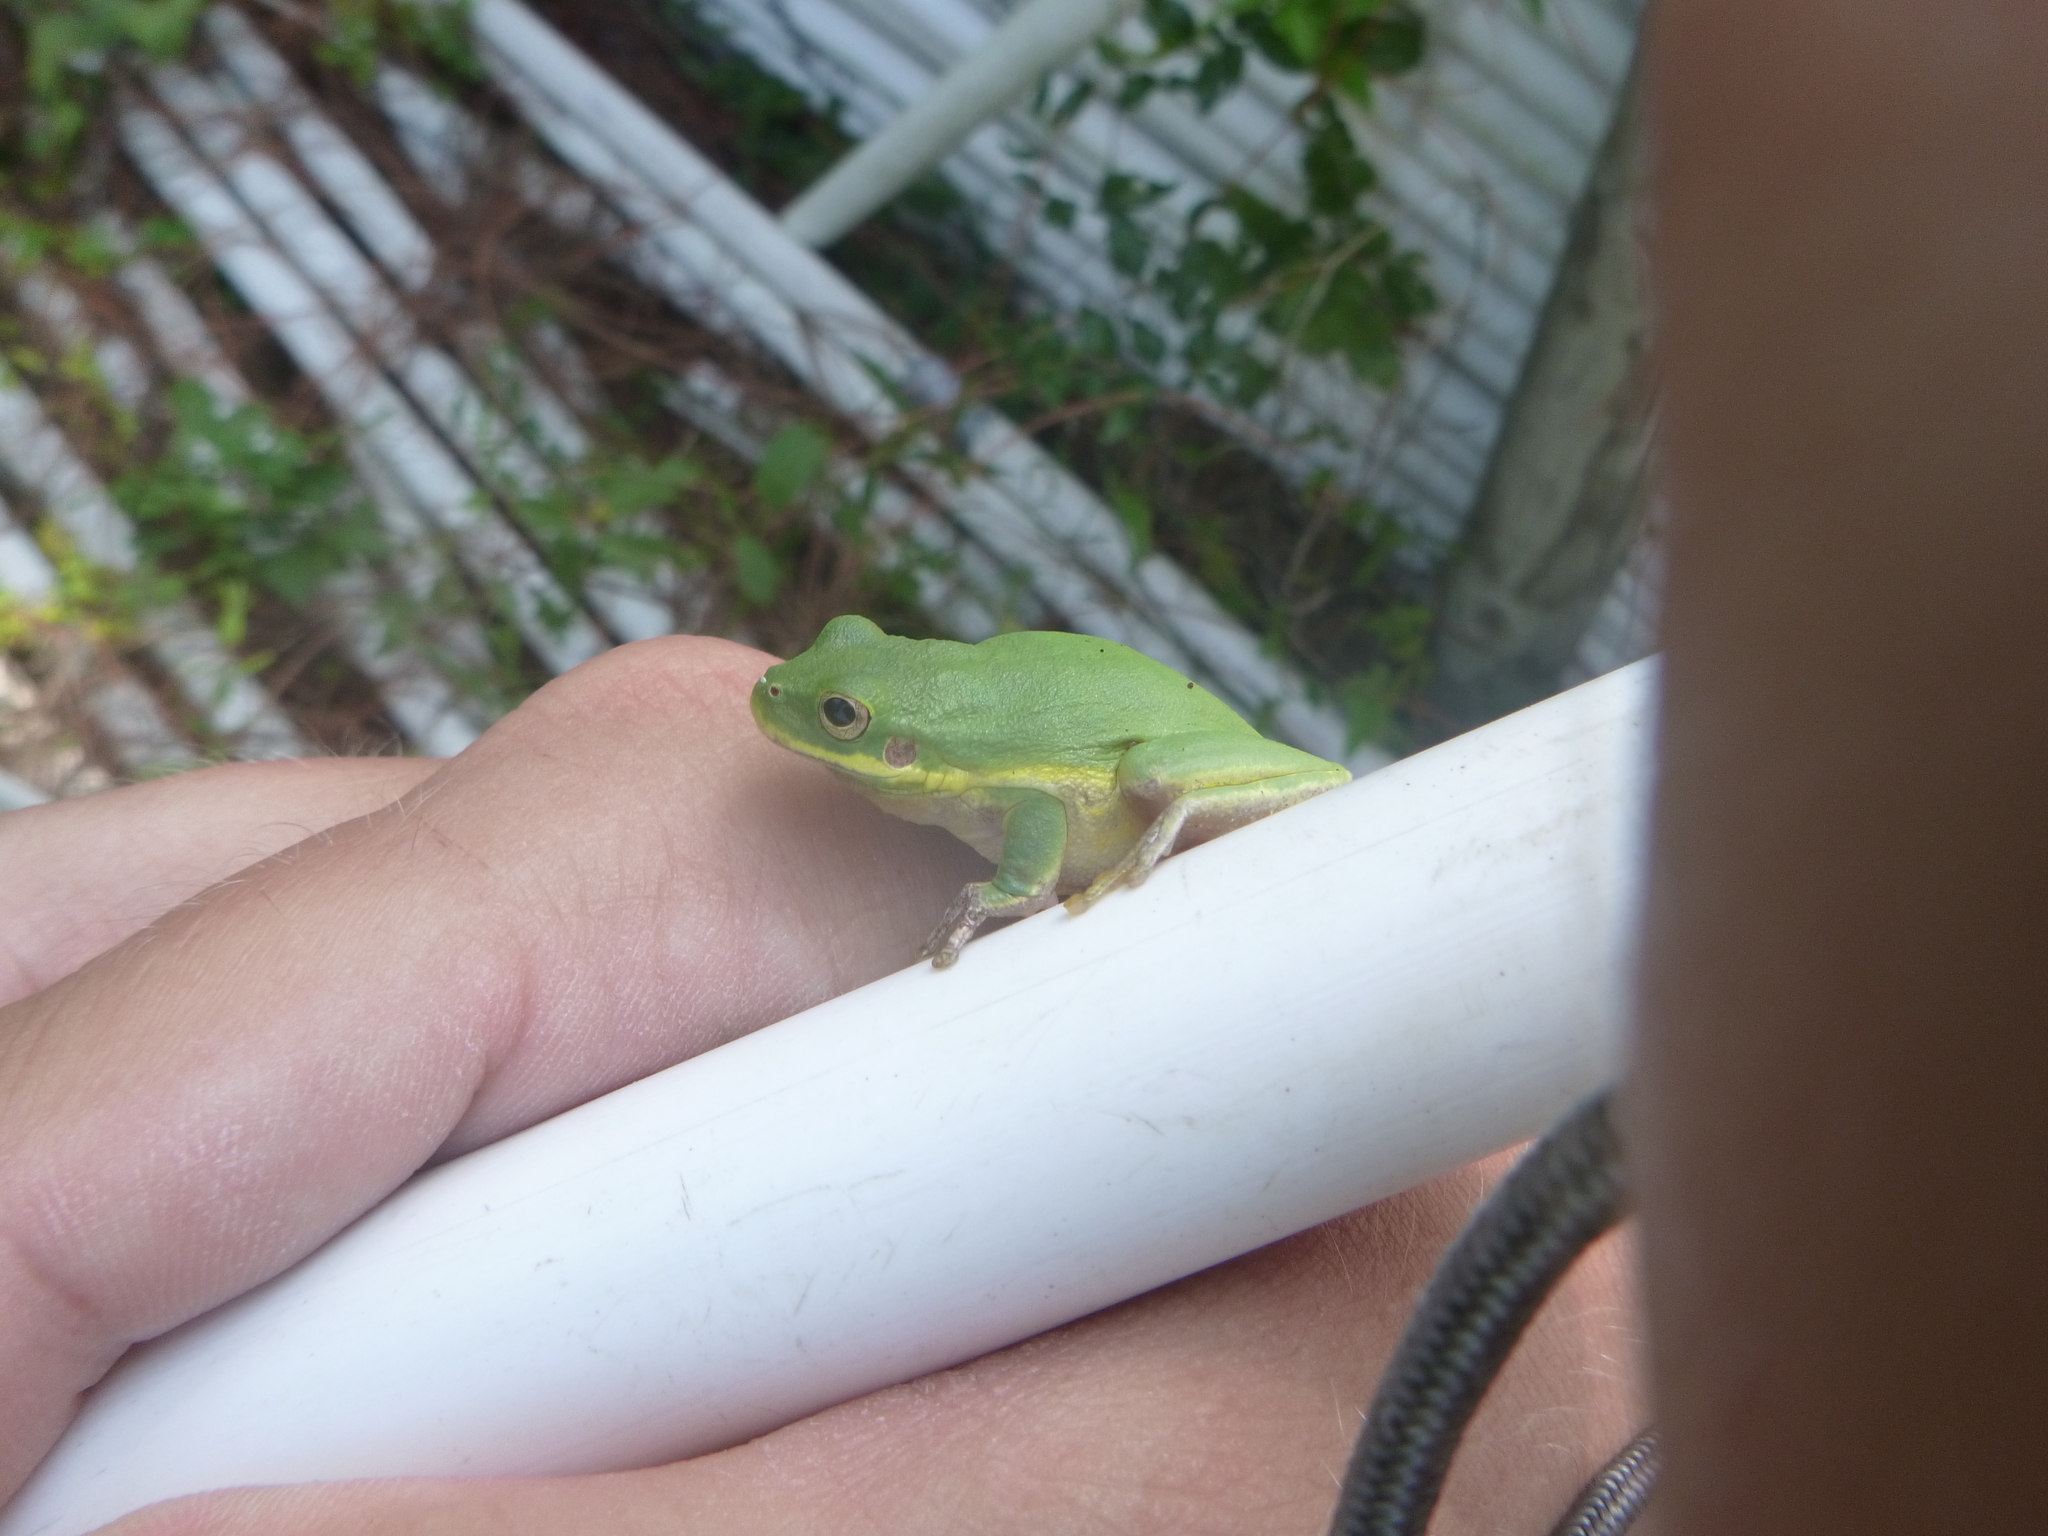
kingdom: Animalia
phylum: Chordata
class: Amphibia
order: Anura
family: Hylidae
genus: Dryophytes
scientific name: Dryophytes squirellus
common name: Squirrel treefrog
